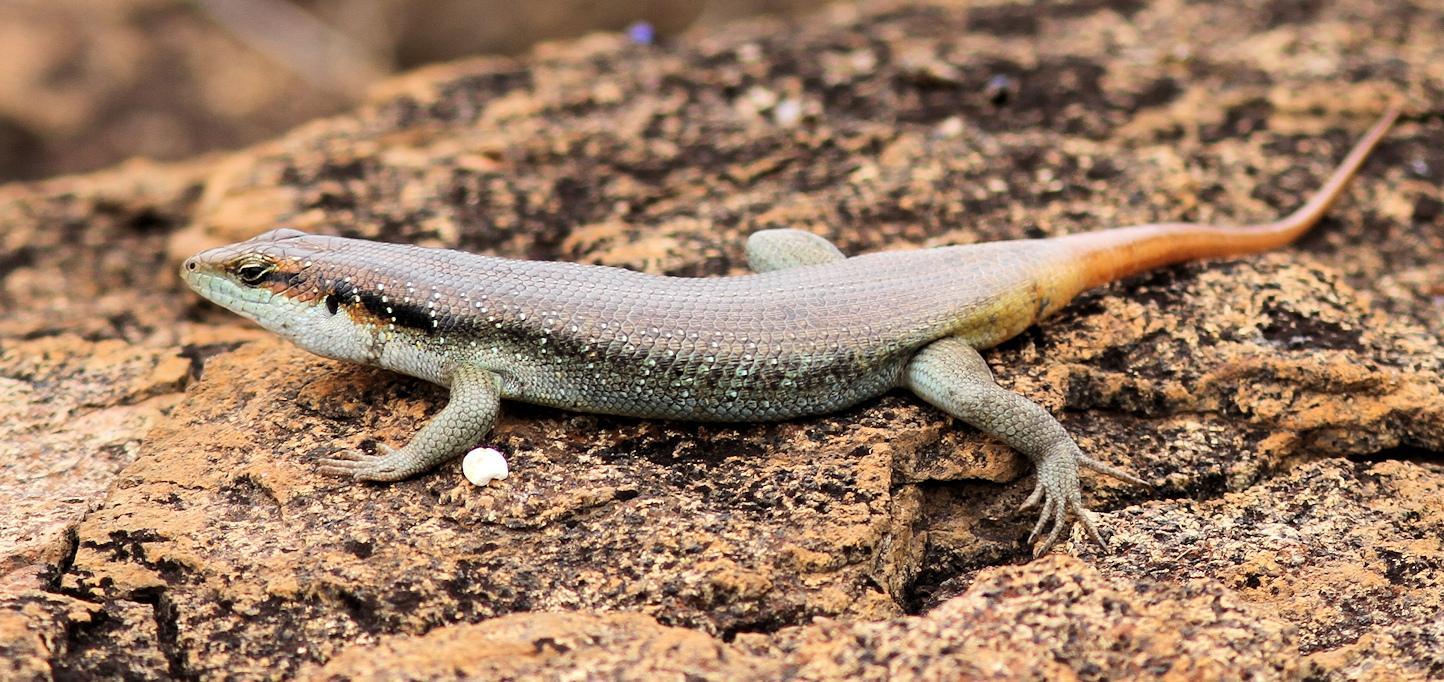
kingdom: Animalia
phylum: Chordata
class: Squamata
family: Scincidae
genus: Trachylepis
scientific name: Trachylepis margaritifera
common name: Rainbow skink
